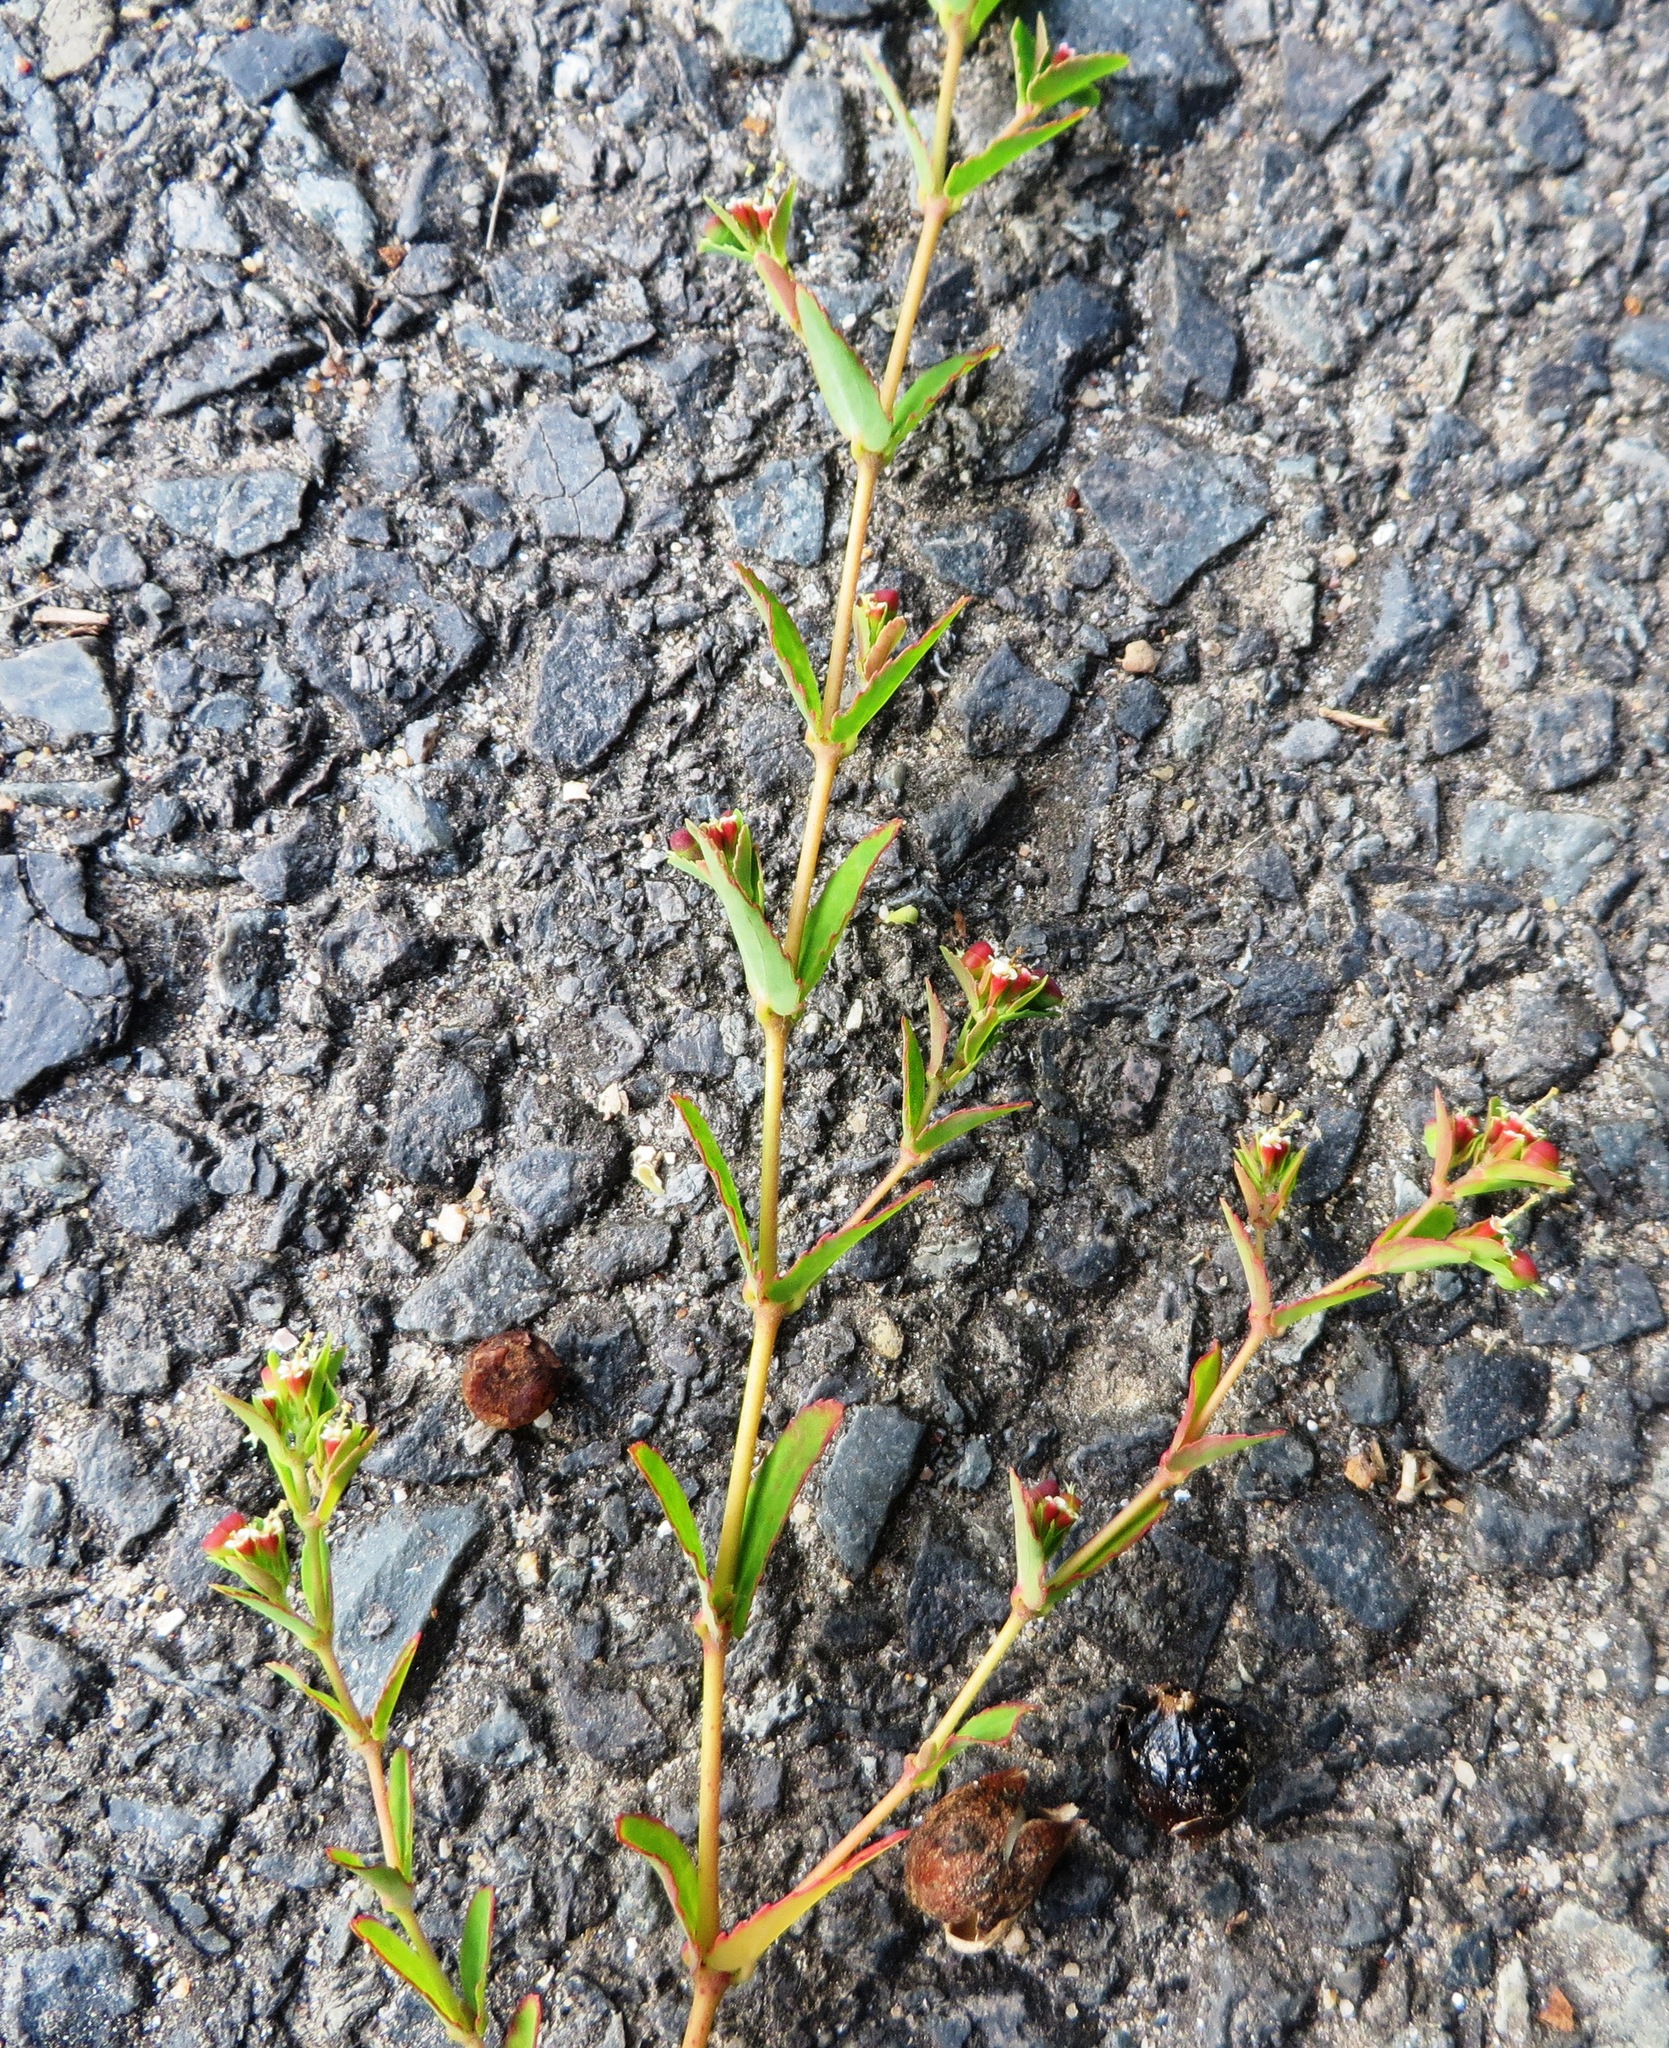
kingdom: Plantae
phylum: Tracheophyta
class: Magnoliopsida
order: Malpighiales
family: Euphorbiaceae
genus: Euphorbia
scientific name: Euphorbia nutans
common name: Eyebane
